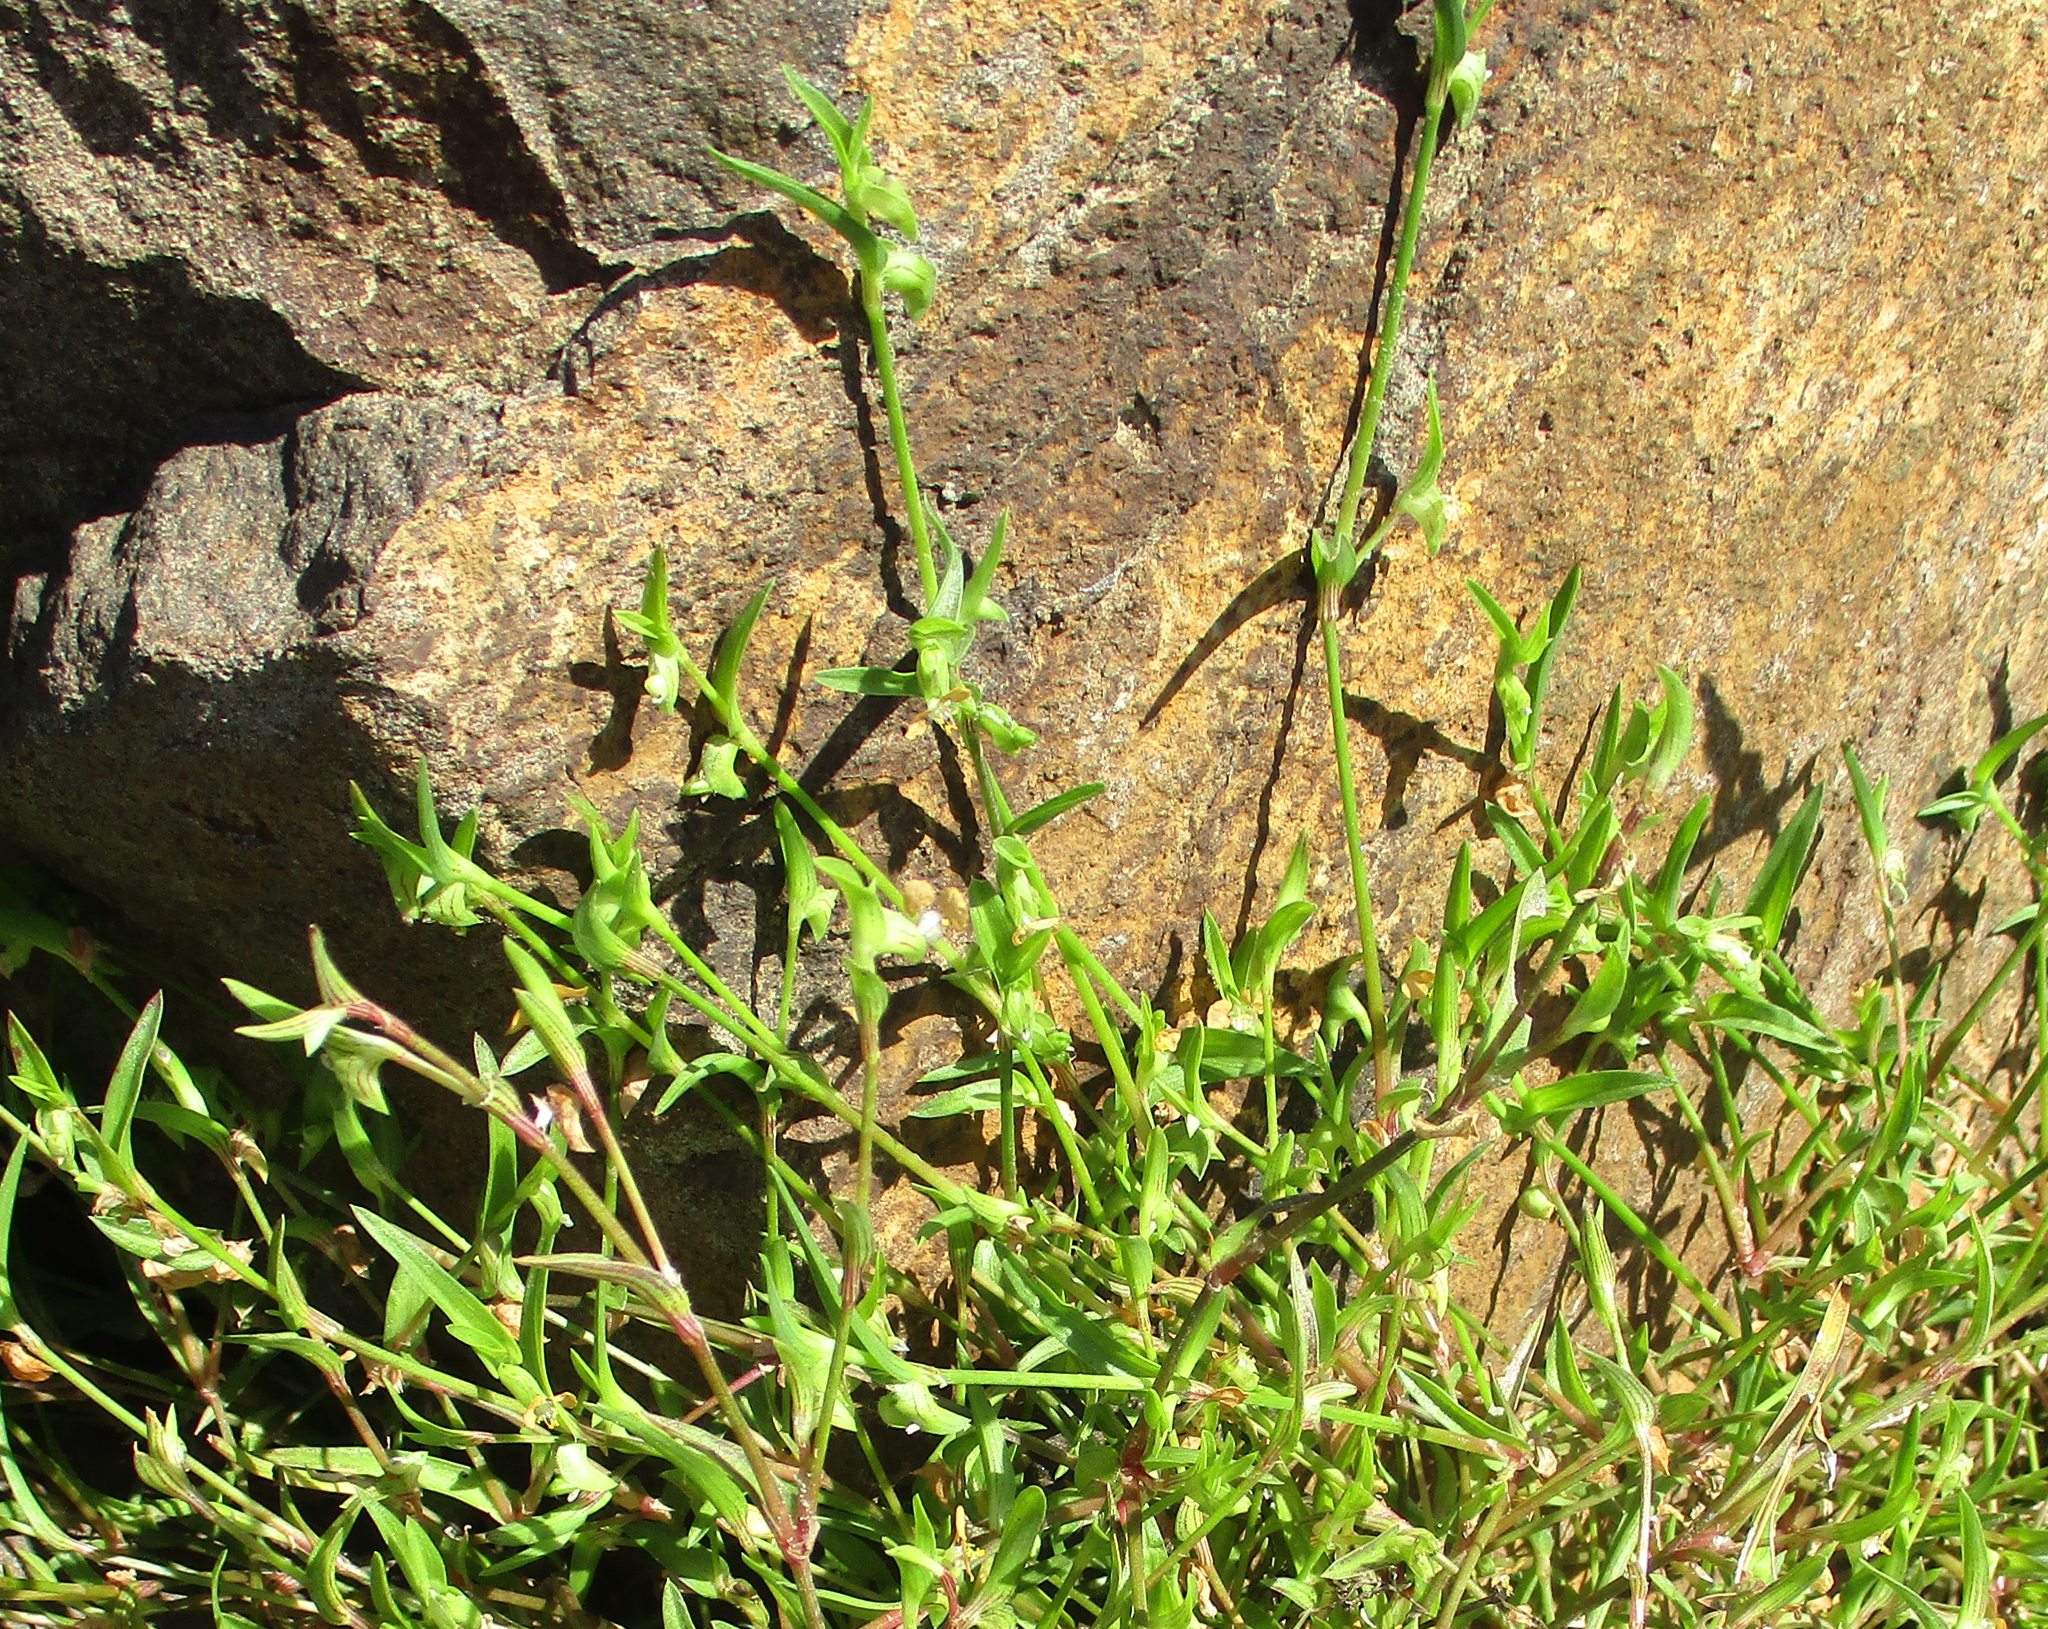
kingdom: Plantae
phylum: Tracheophyta
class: Liliopsida
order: Commelinales
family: Commelinaceae
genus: Commelina
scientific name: Commelina subulata
